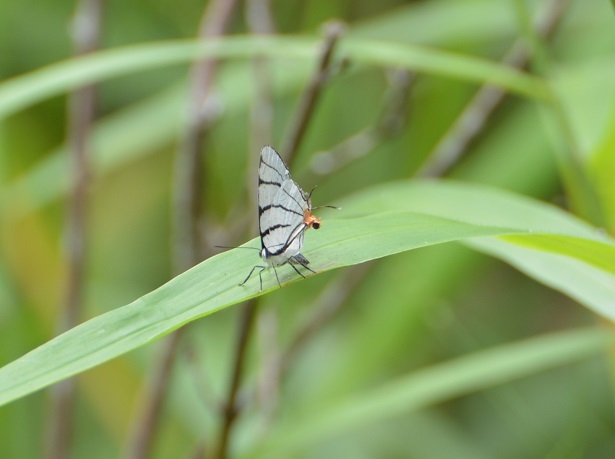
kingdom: Animalia
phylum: Arthropoda
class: Insecta
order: Lepidoptera
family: Lycaenidae
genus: Arawacus
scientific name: Arawacus sito
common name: Fine-lined hairstreak
